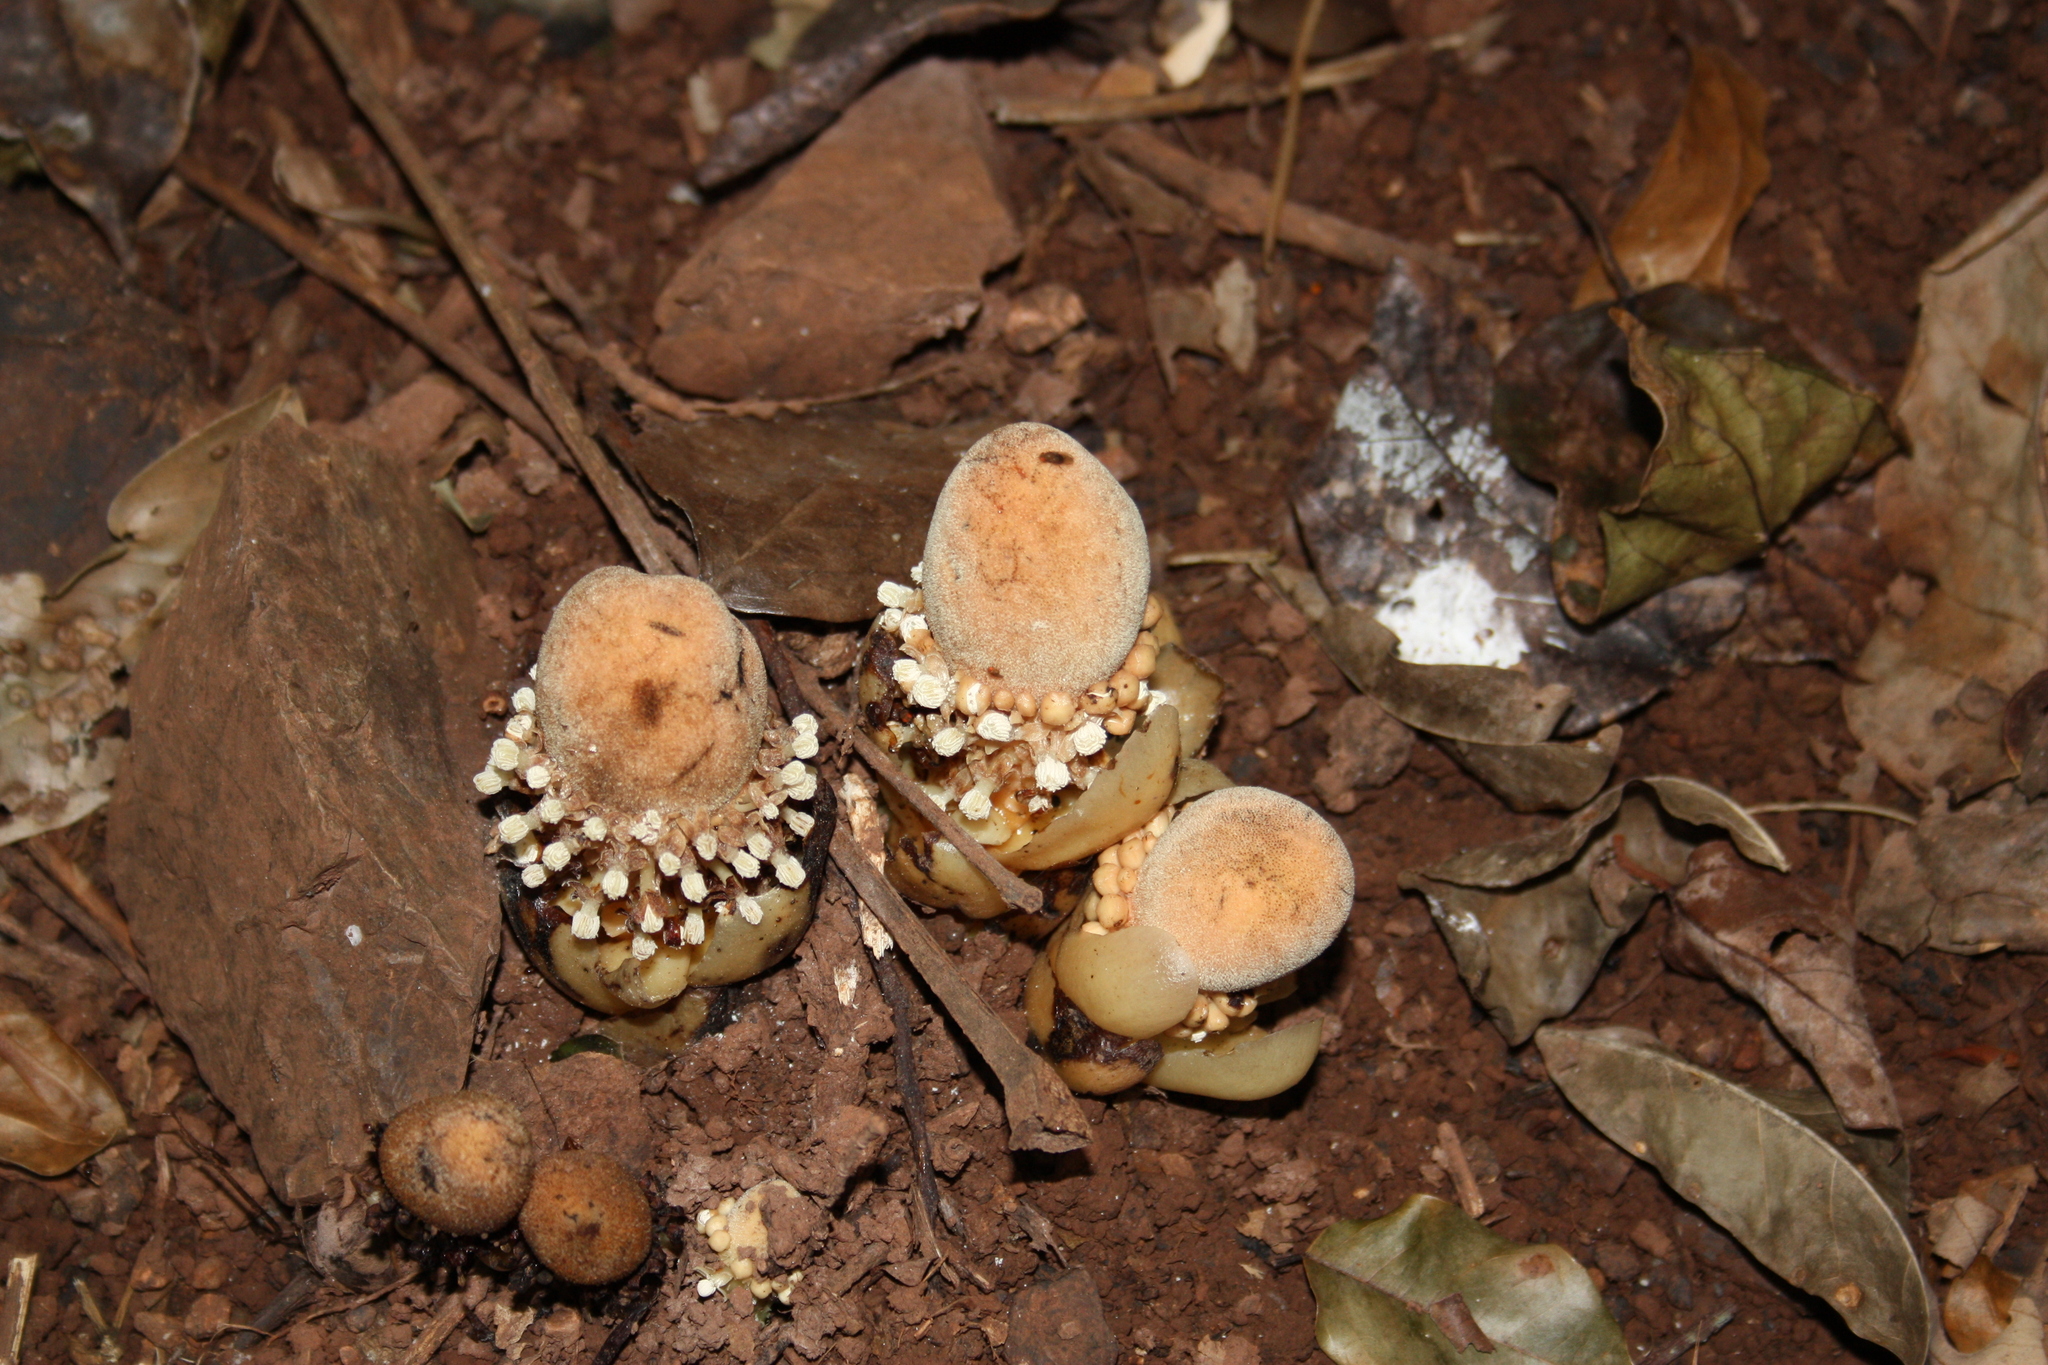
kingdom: Plantae
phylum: Tracheophyta
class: Magnoliopsida
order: Santalales
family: Balanophoraceae
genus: Balanophora
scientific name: Balanophora fungosa
